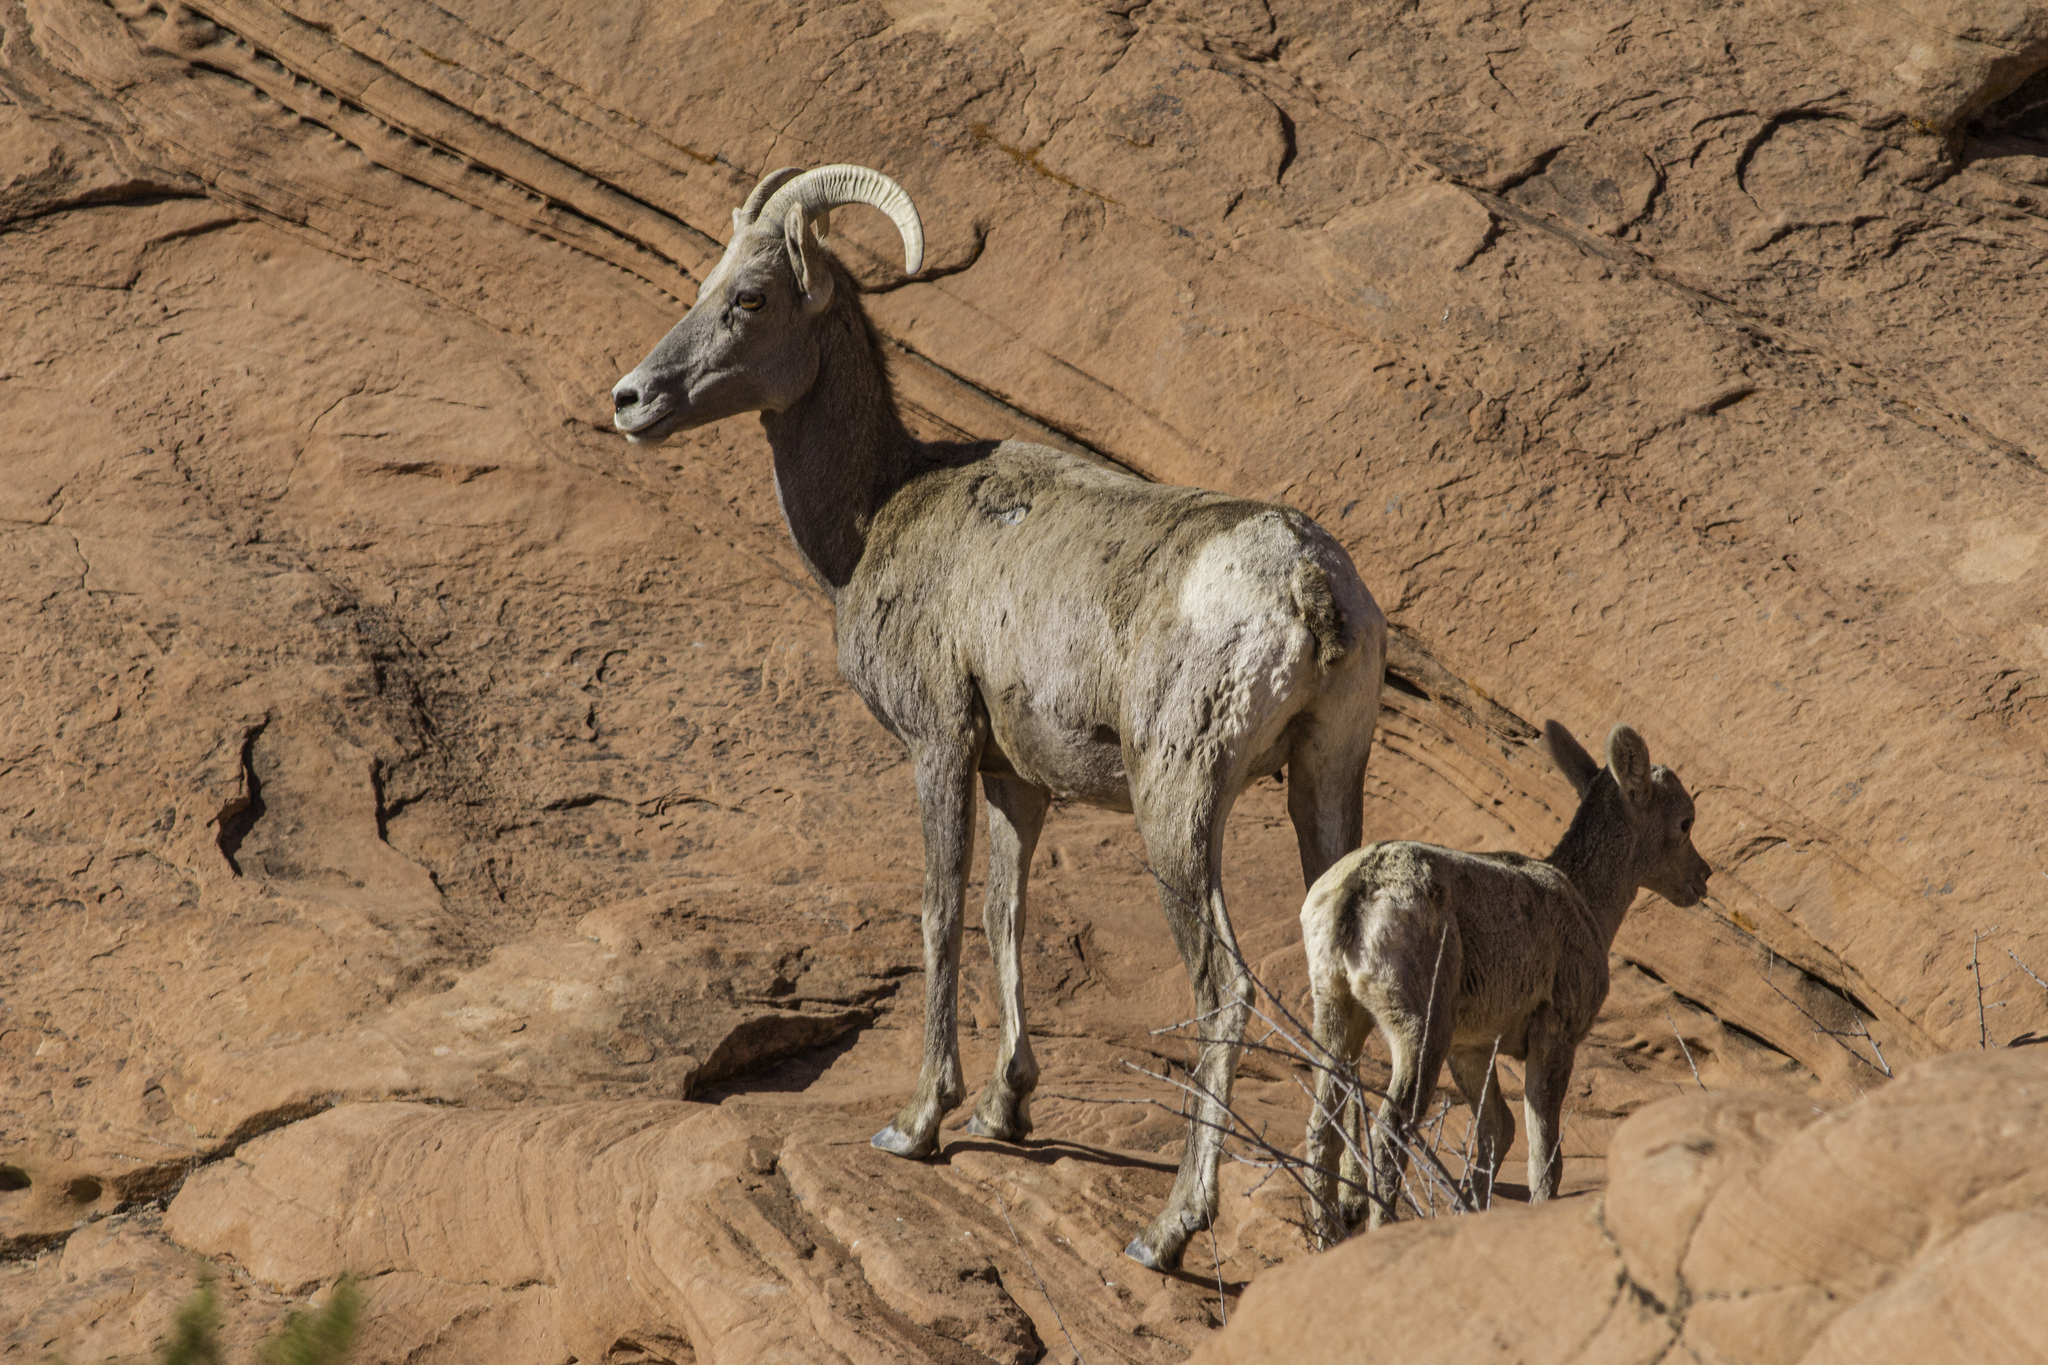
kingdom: Animalia
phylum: Chordata
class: Mammalia
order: Artiodactyla
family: Bovidae
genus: Ovis
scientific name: Ovis canadensis
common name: Bighorn sheep
